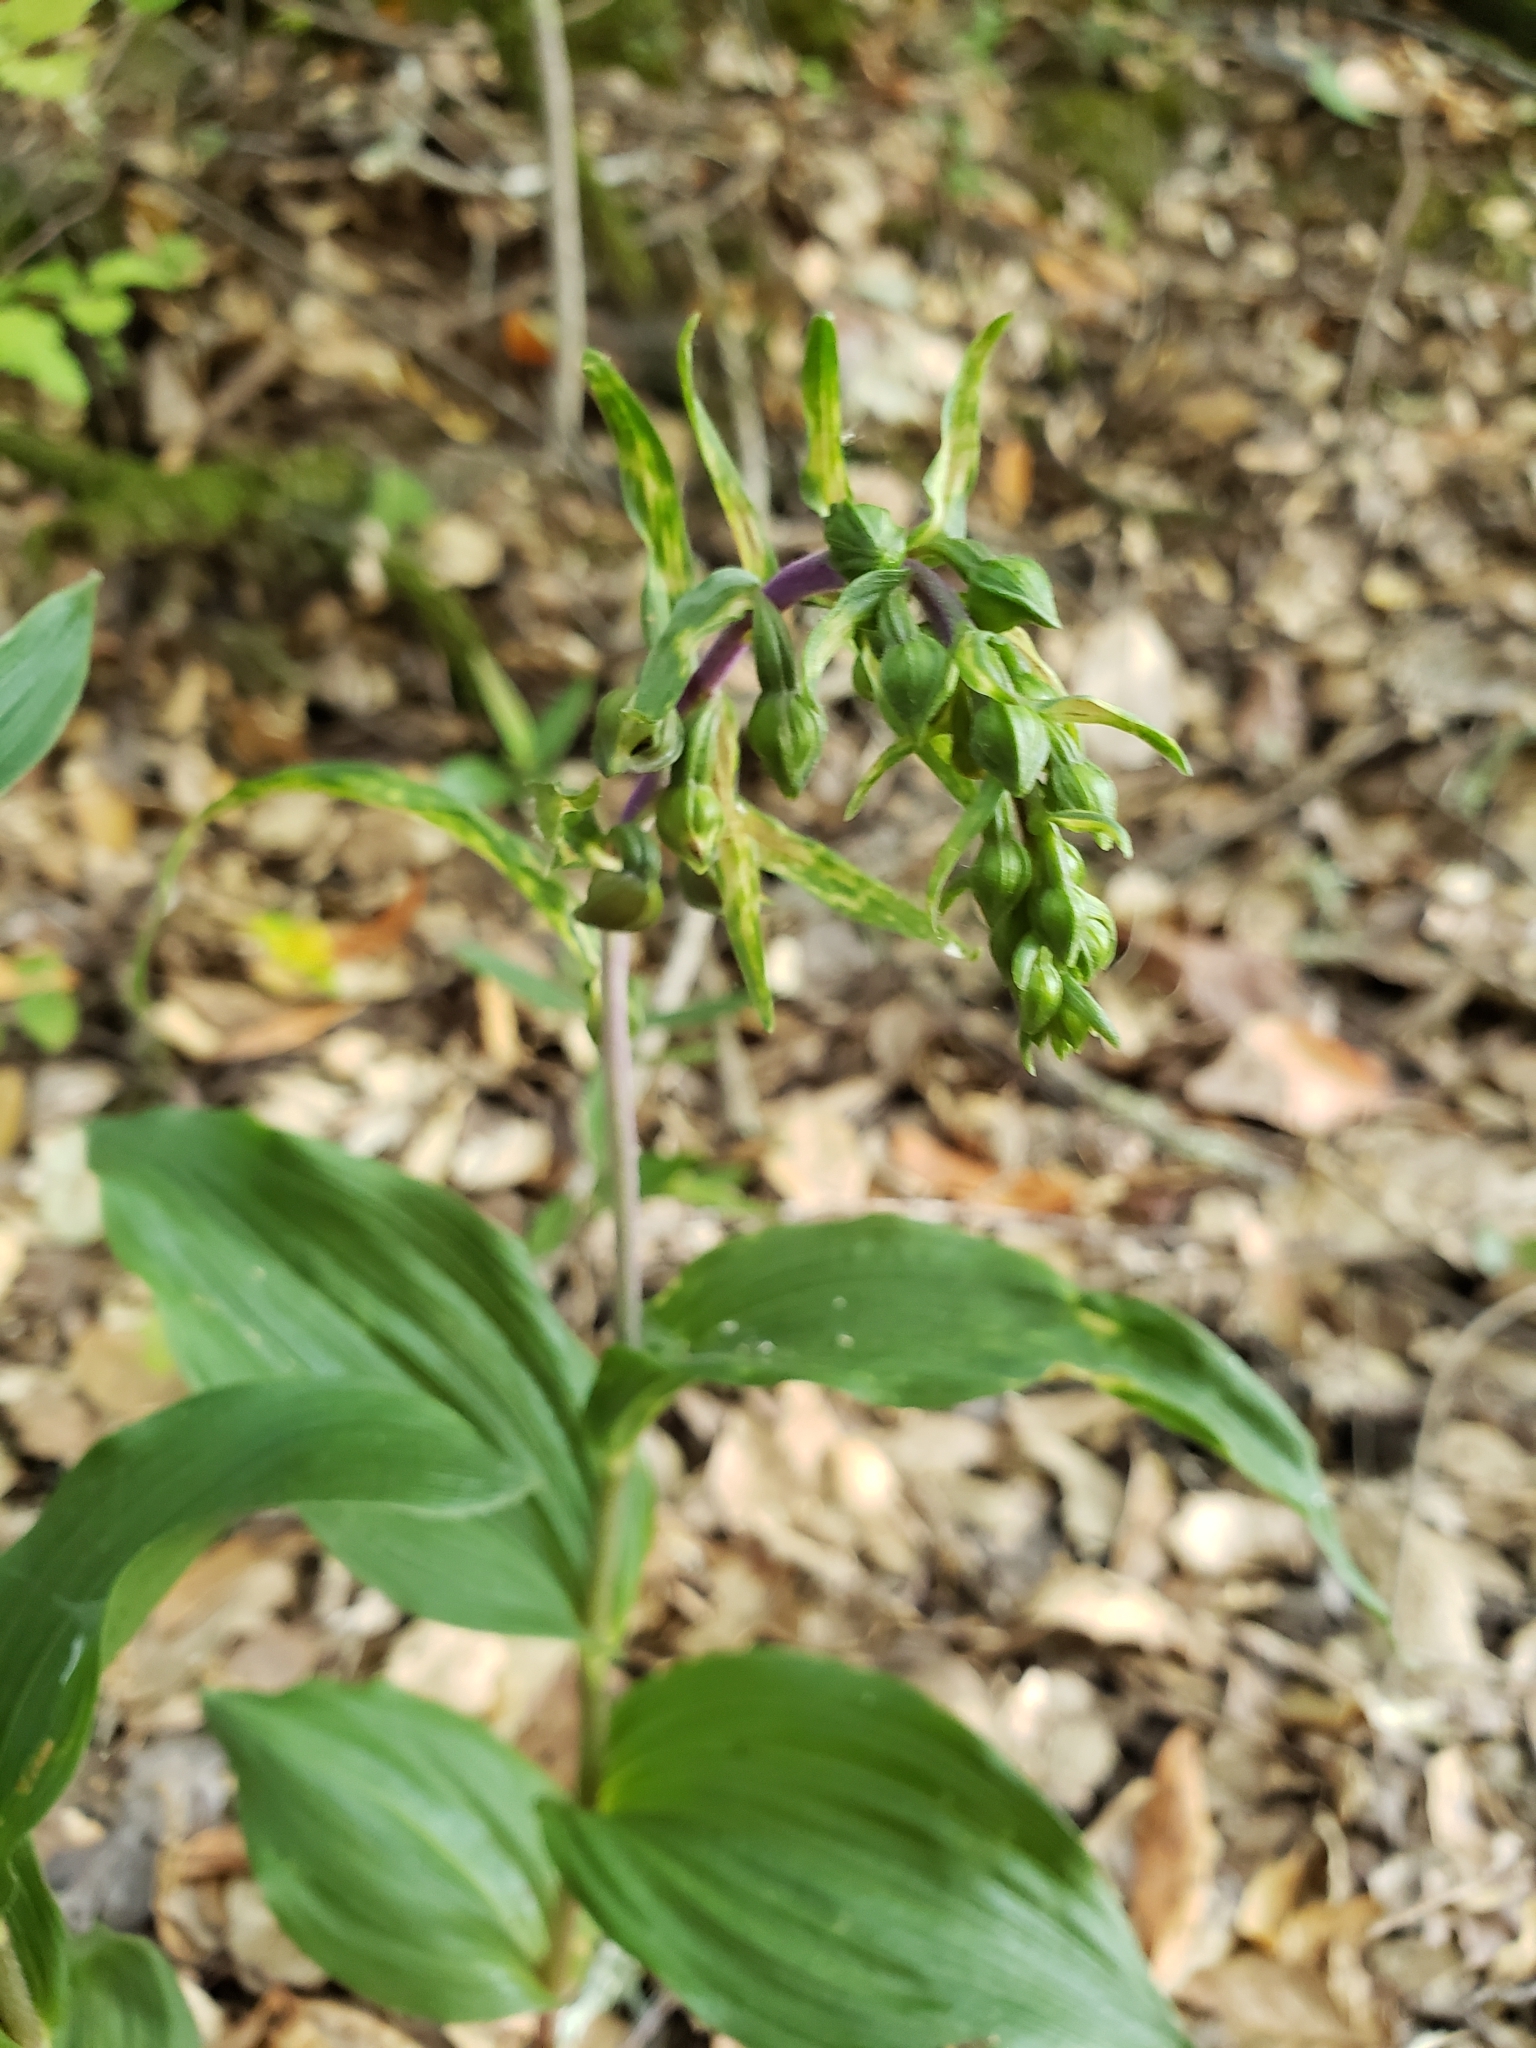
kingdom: Plantae
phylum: Tracheophyta
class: Liliopsida
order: Asparagales
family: Orchidaceae
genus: Epipactis
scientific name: Epipactis helleborine
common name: Broad-leaved helleborine
